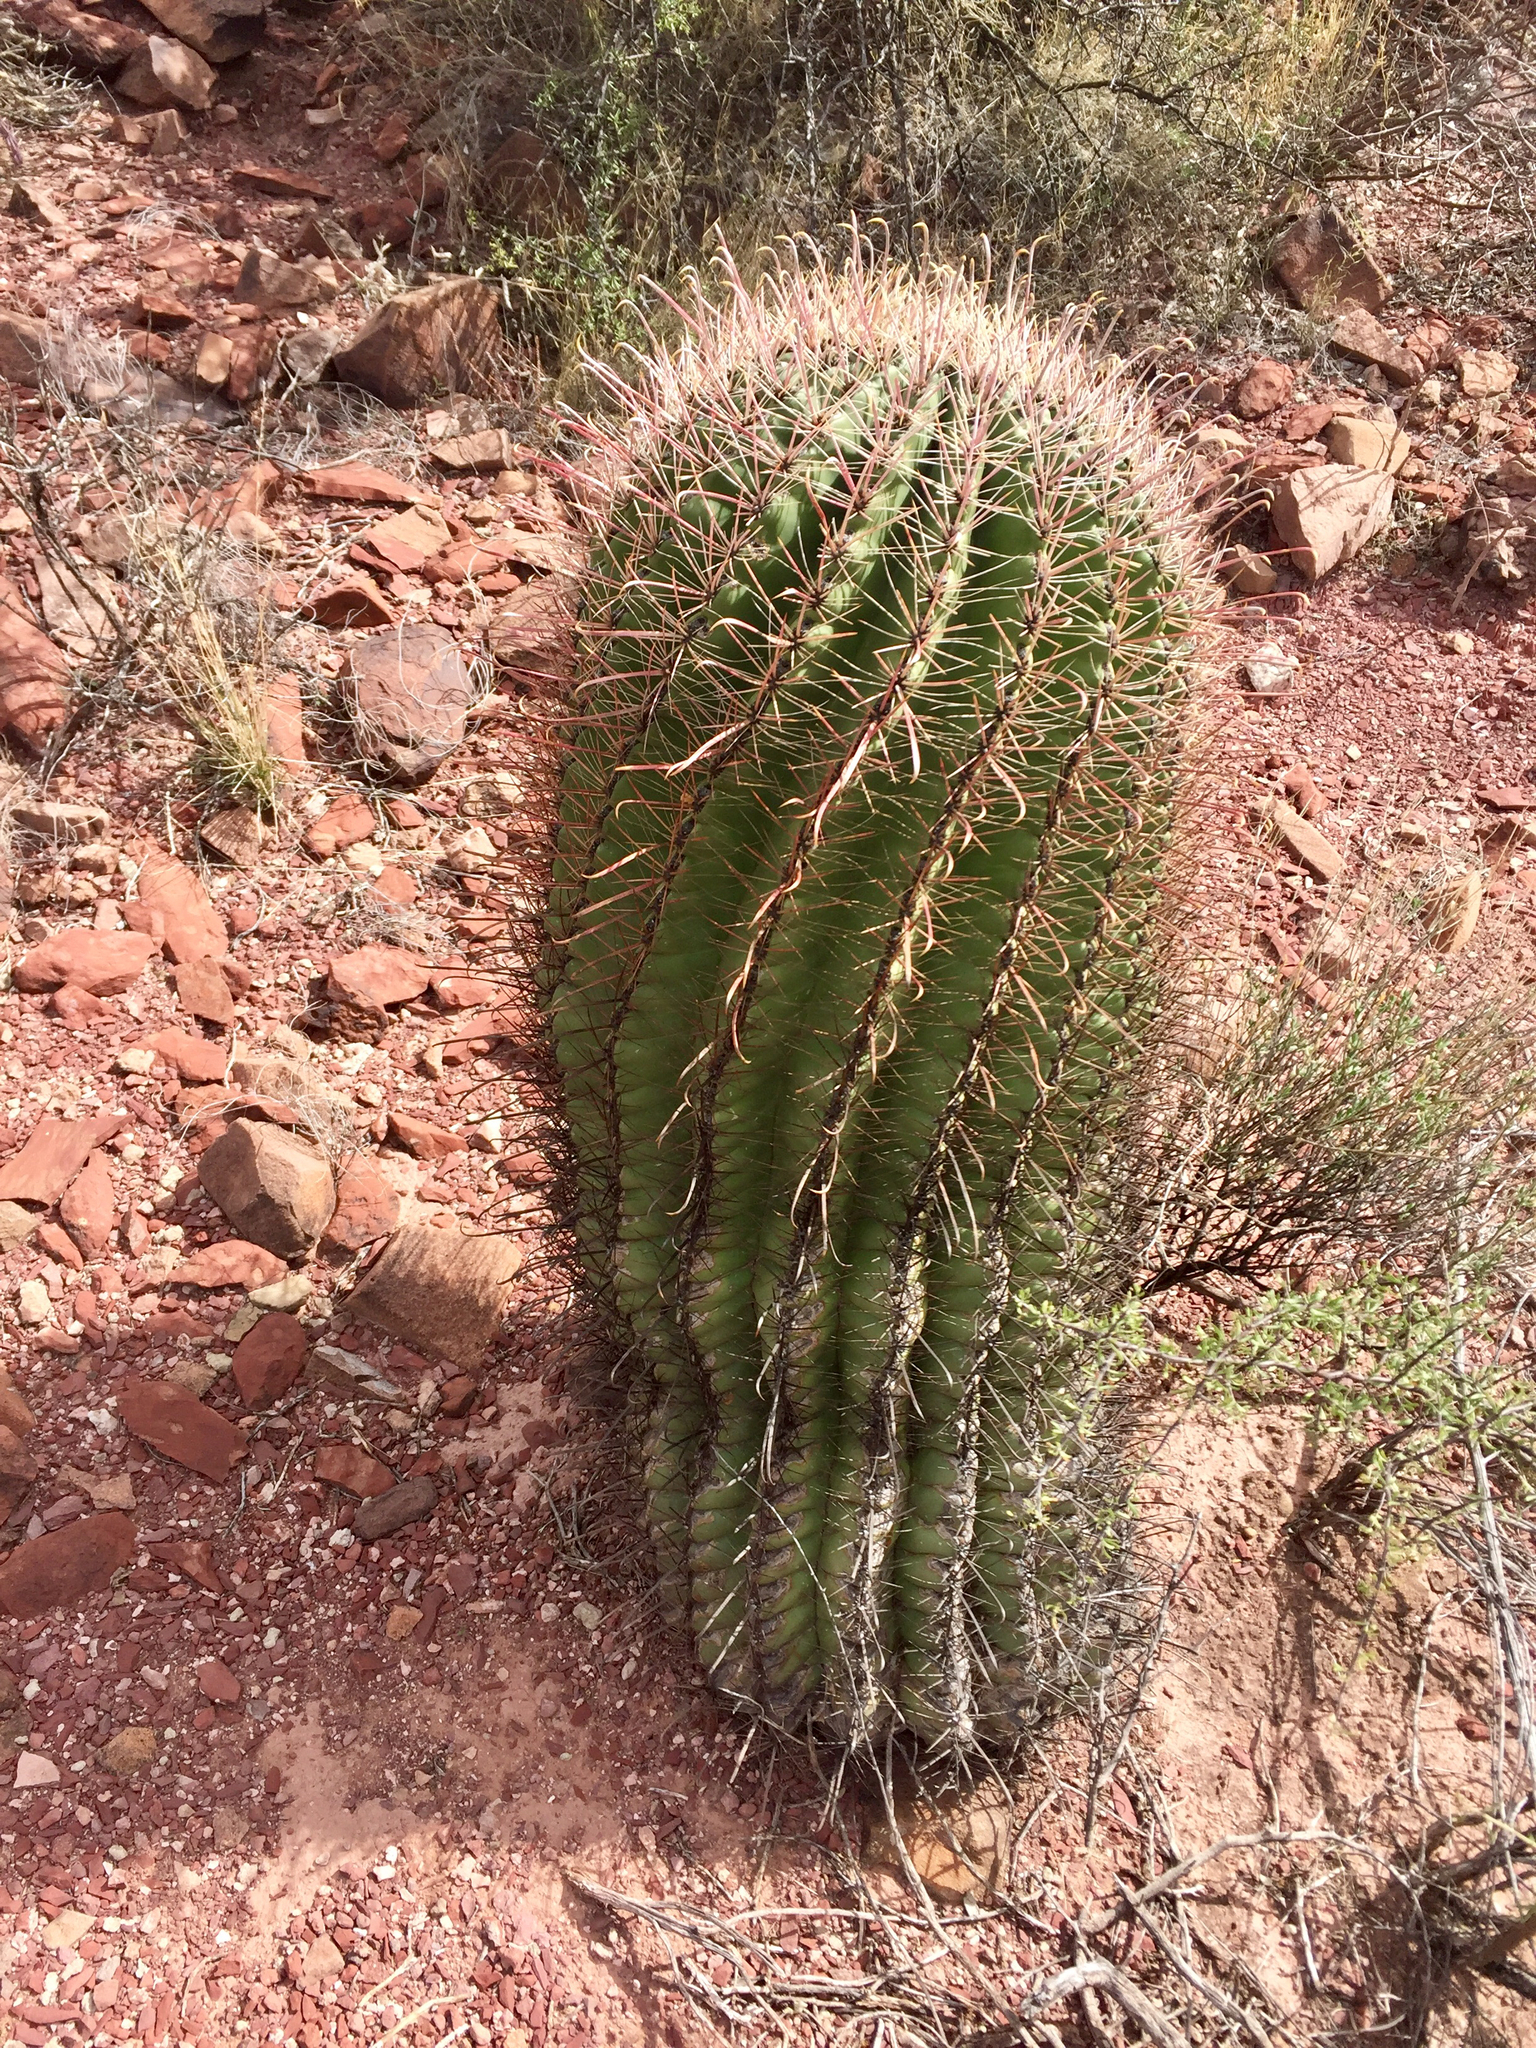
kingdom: Plantae
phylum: Tracheophyta
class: Magnoliopsida
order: Caryophyllales
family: Cactaceae
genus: Ferocactus
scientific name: Ferocactus wislizeni
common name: Candy barrel cactus
